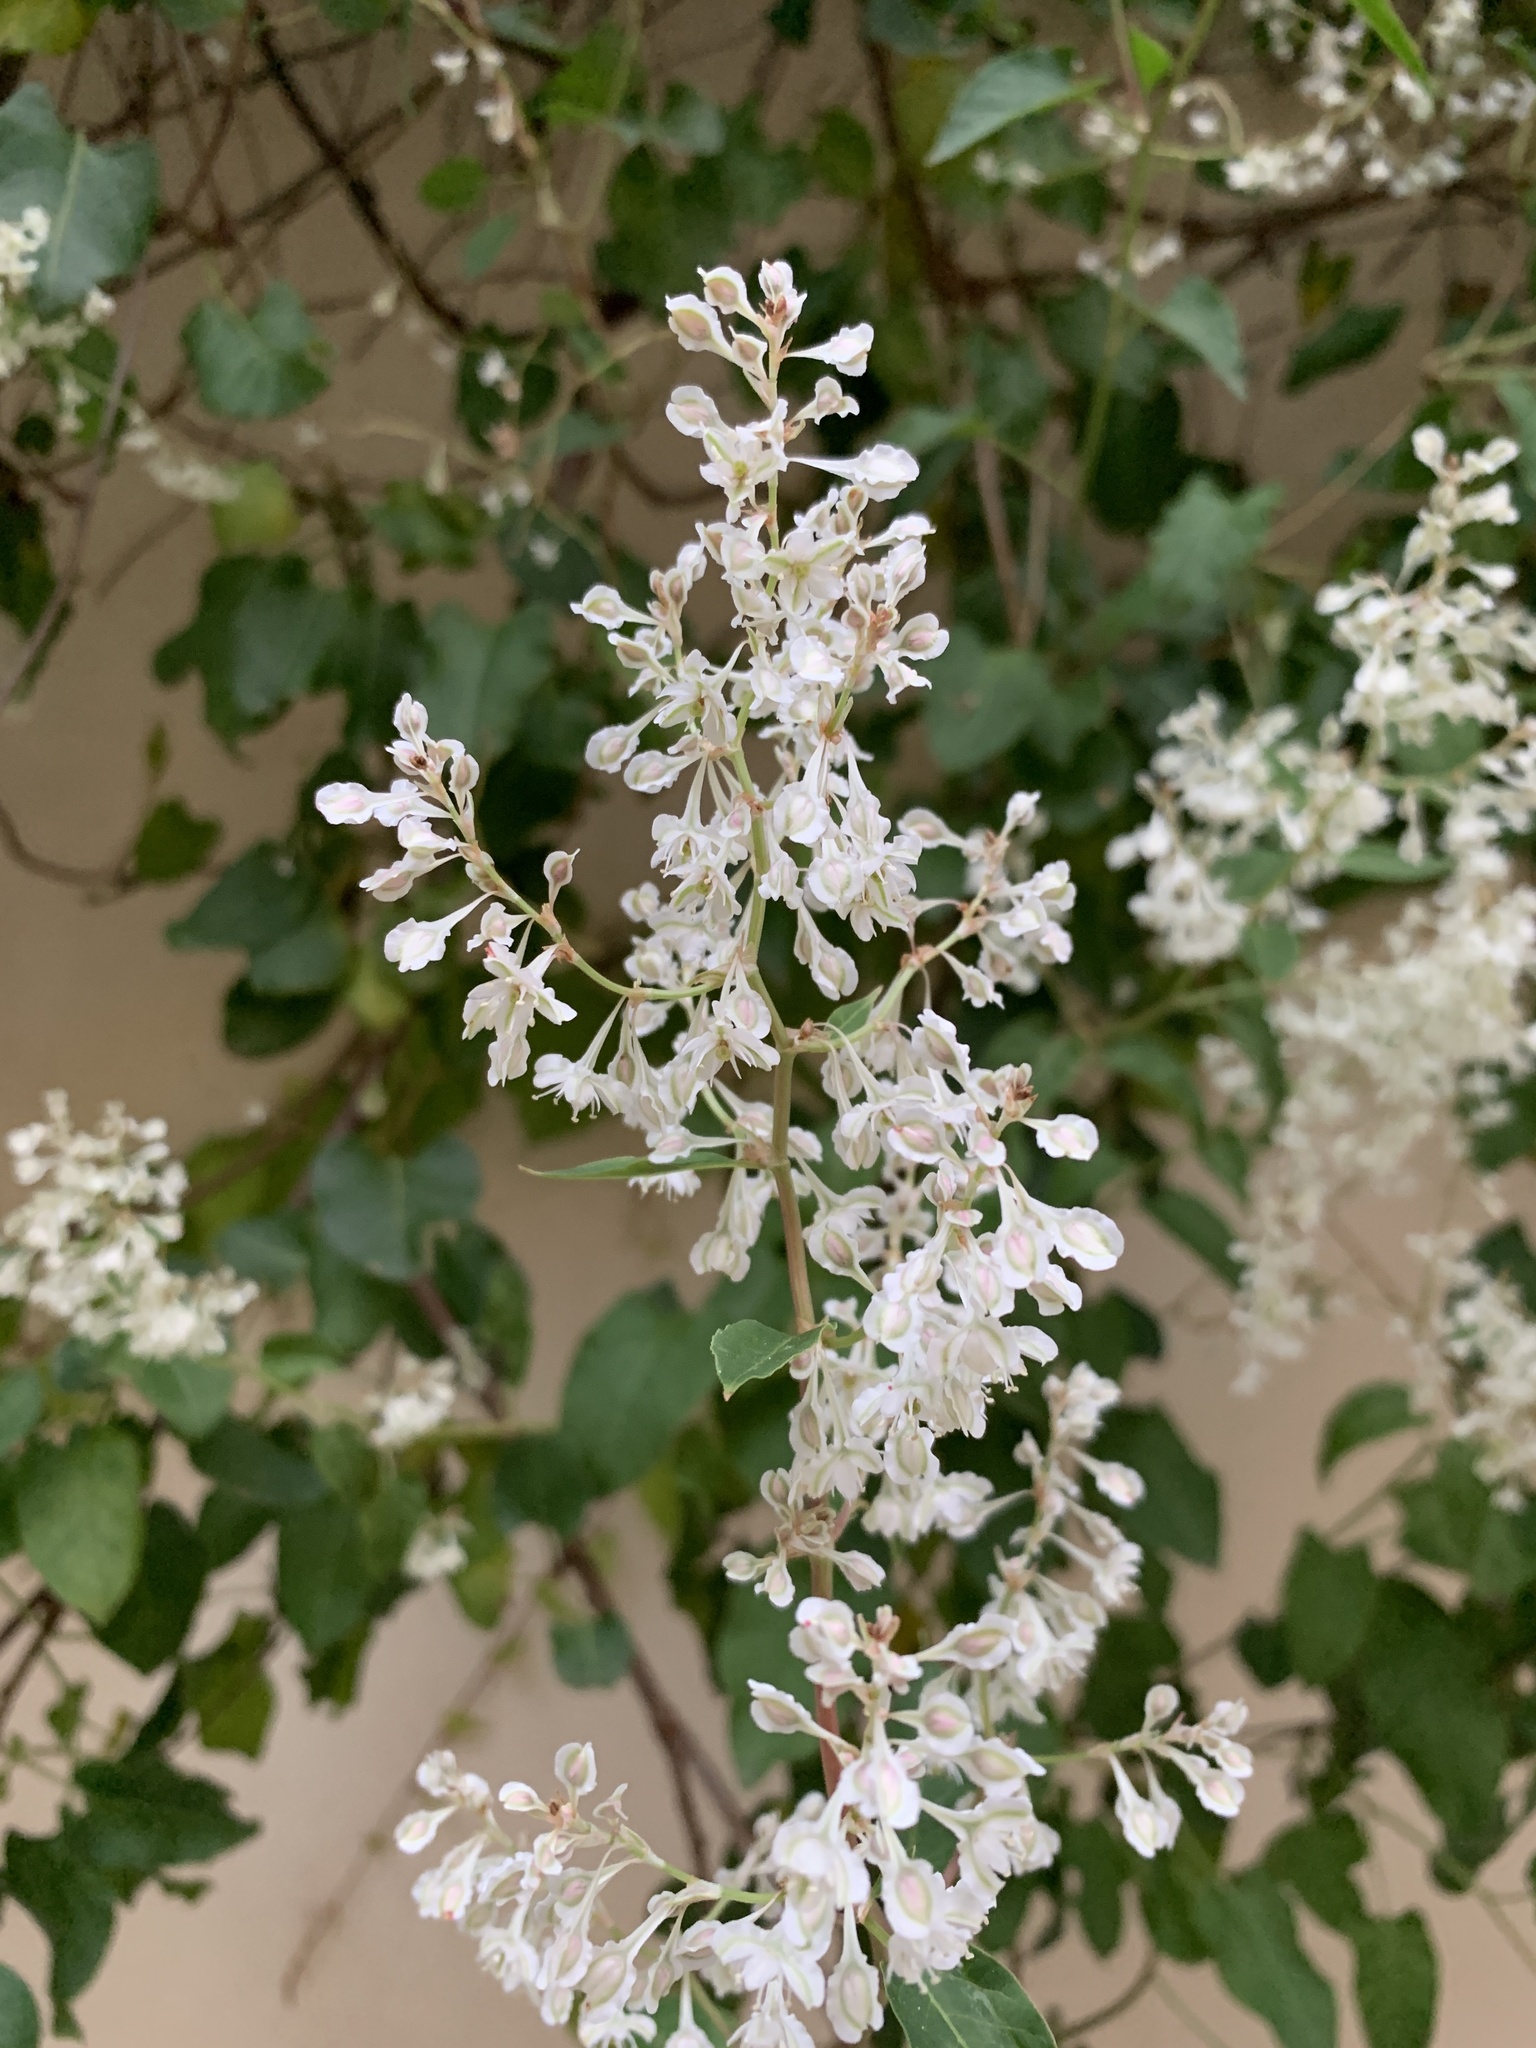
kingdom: Plantae
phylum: Tracheophyta
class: Magnoliopsida
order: Caryophyllales
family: Polygonaceae
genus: Fallopia
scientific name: Fallopia baldschuanica
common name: Russian-vine
